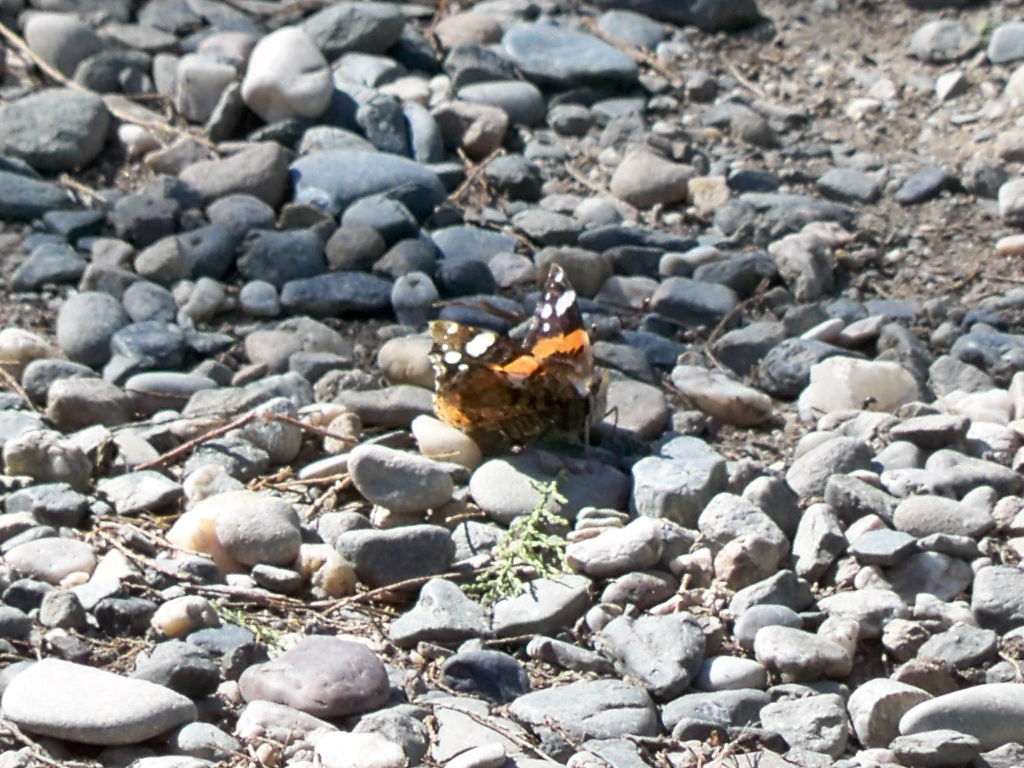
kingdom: Animalia
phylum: Arthropoda
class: Insecta
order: Lepidoptera
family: Nymphalidae
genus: Vanessa
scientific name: Vanessa atalanta
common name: Red admiral
